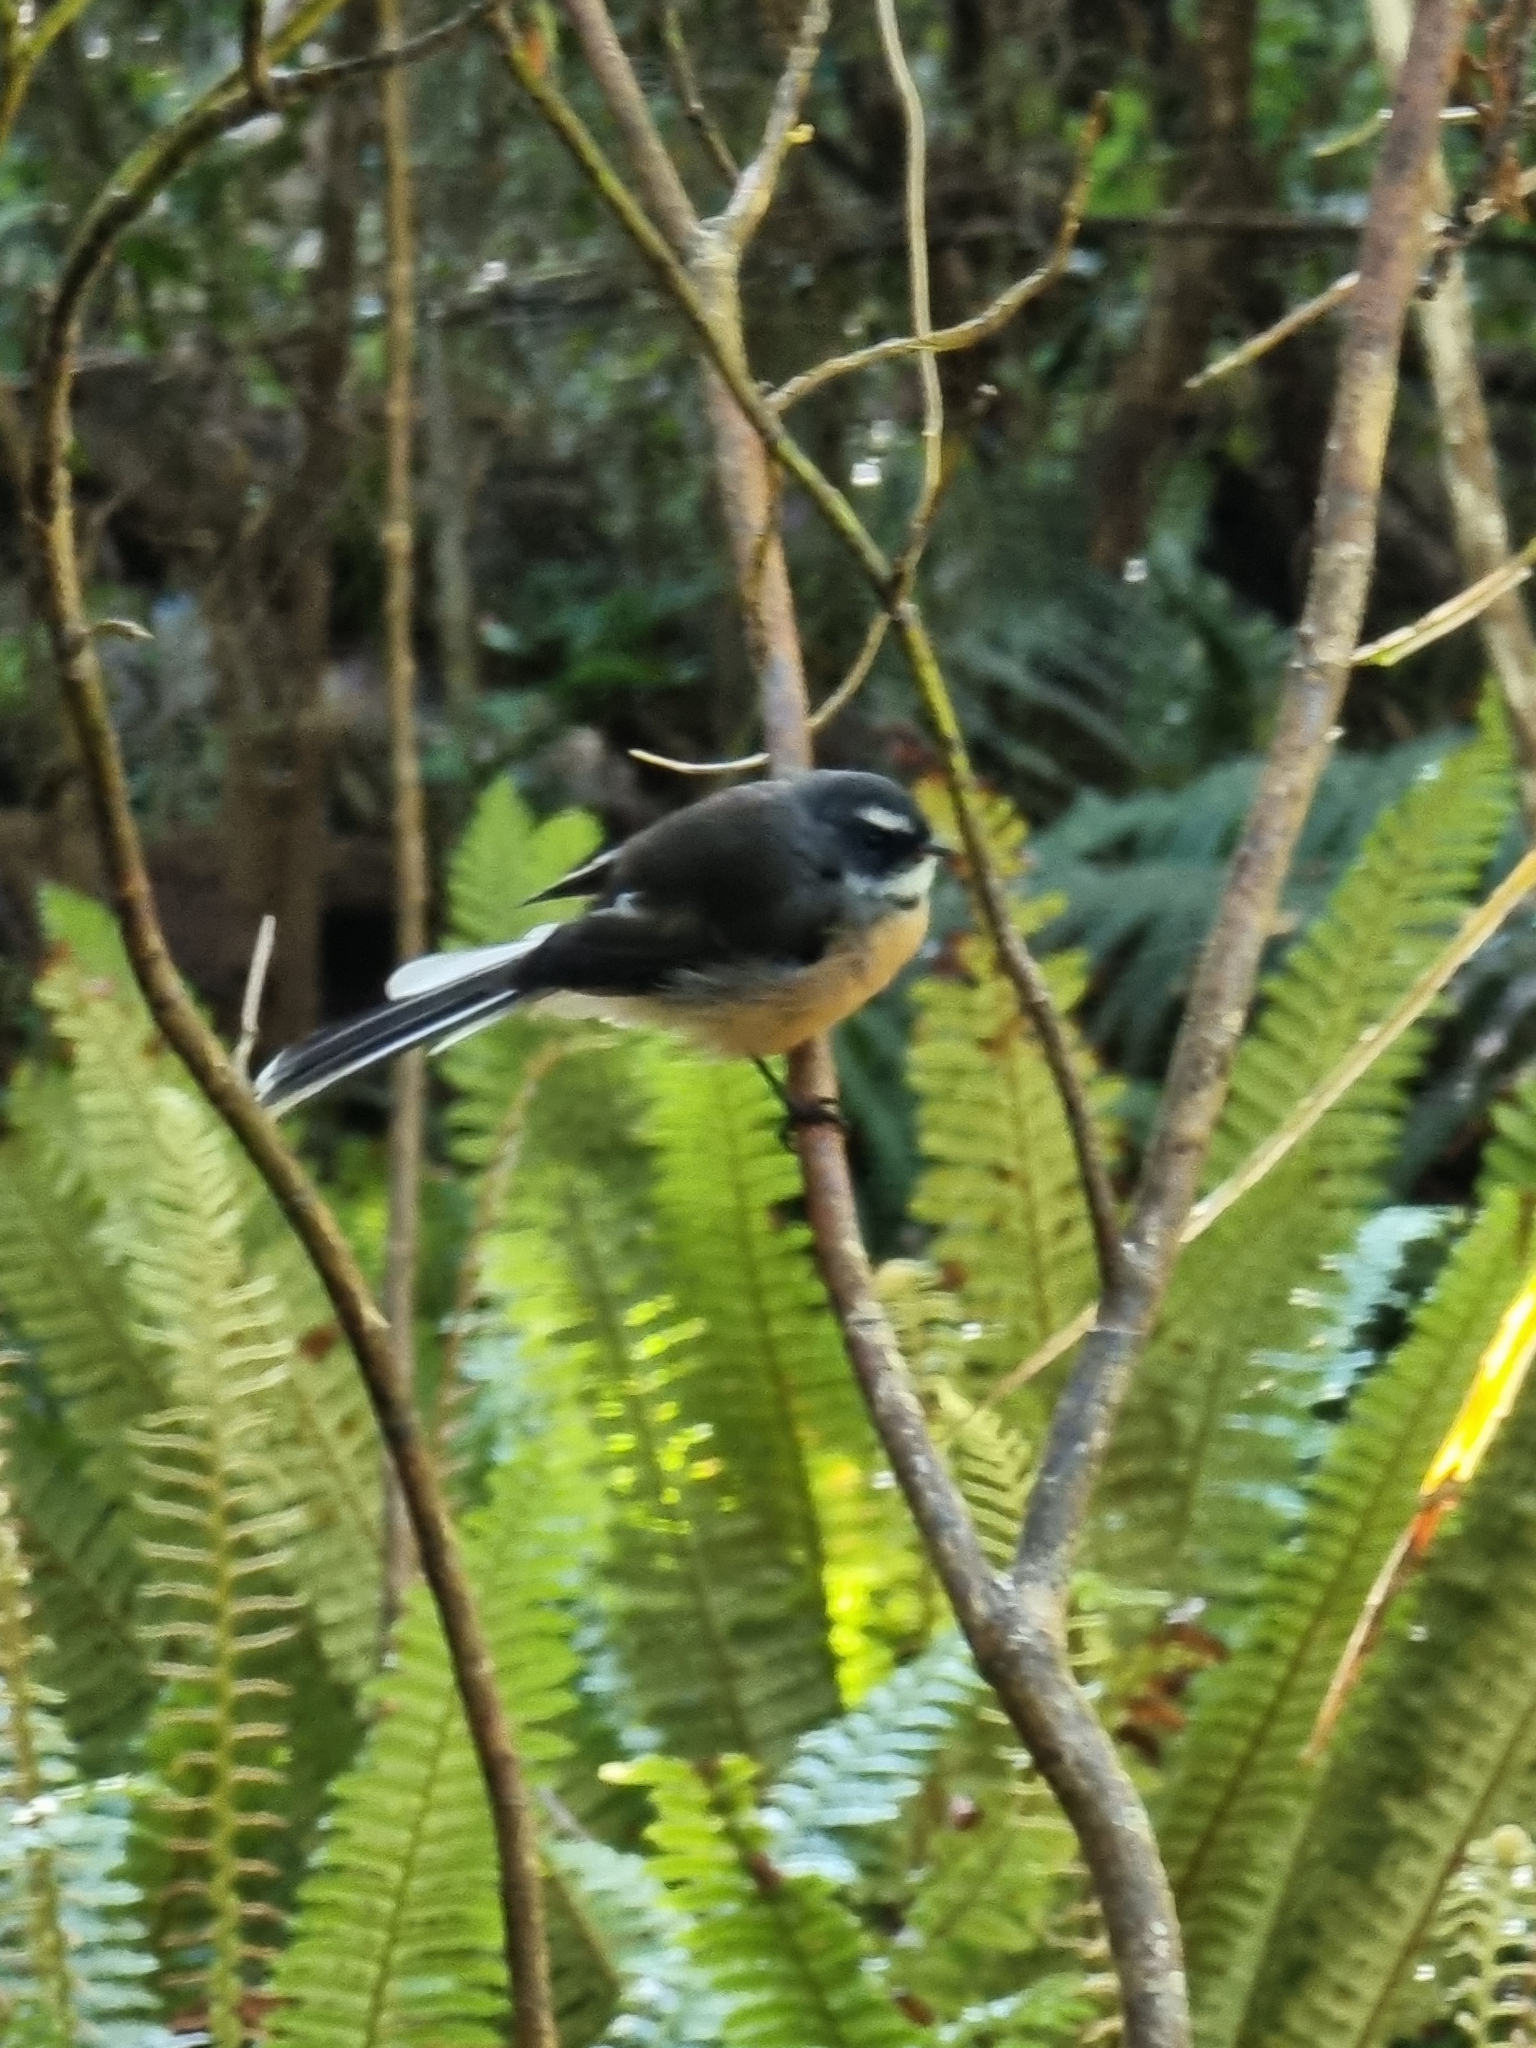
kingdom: Animalia
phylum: Chordata
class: Aves
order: Passeriformes
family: Rhipiduridae
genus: Rhipidura
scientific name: Rhipidura fuliginosa
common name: New zealand fantail
